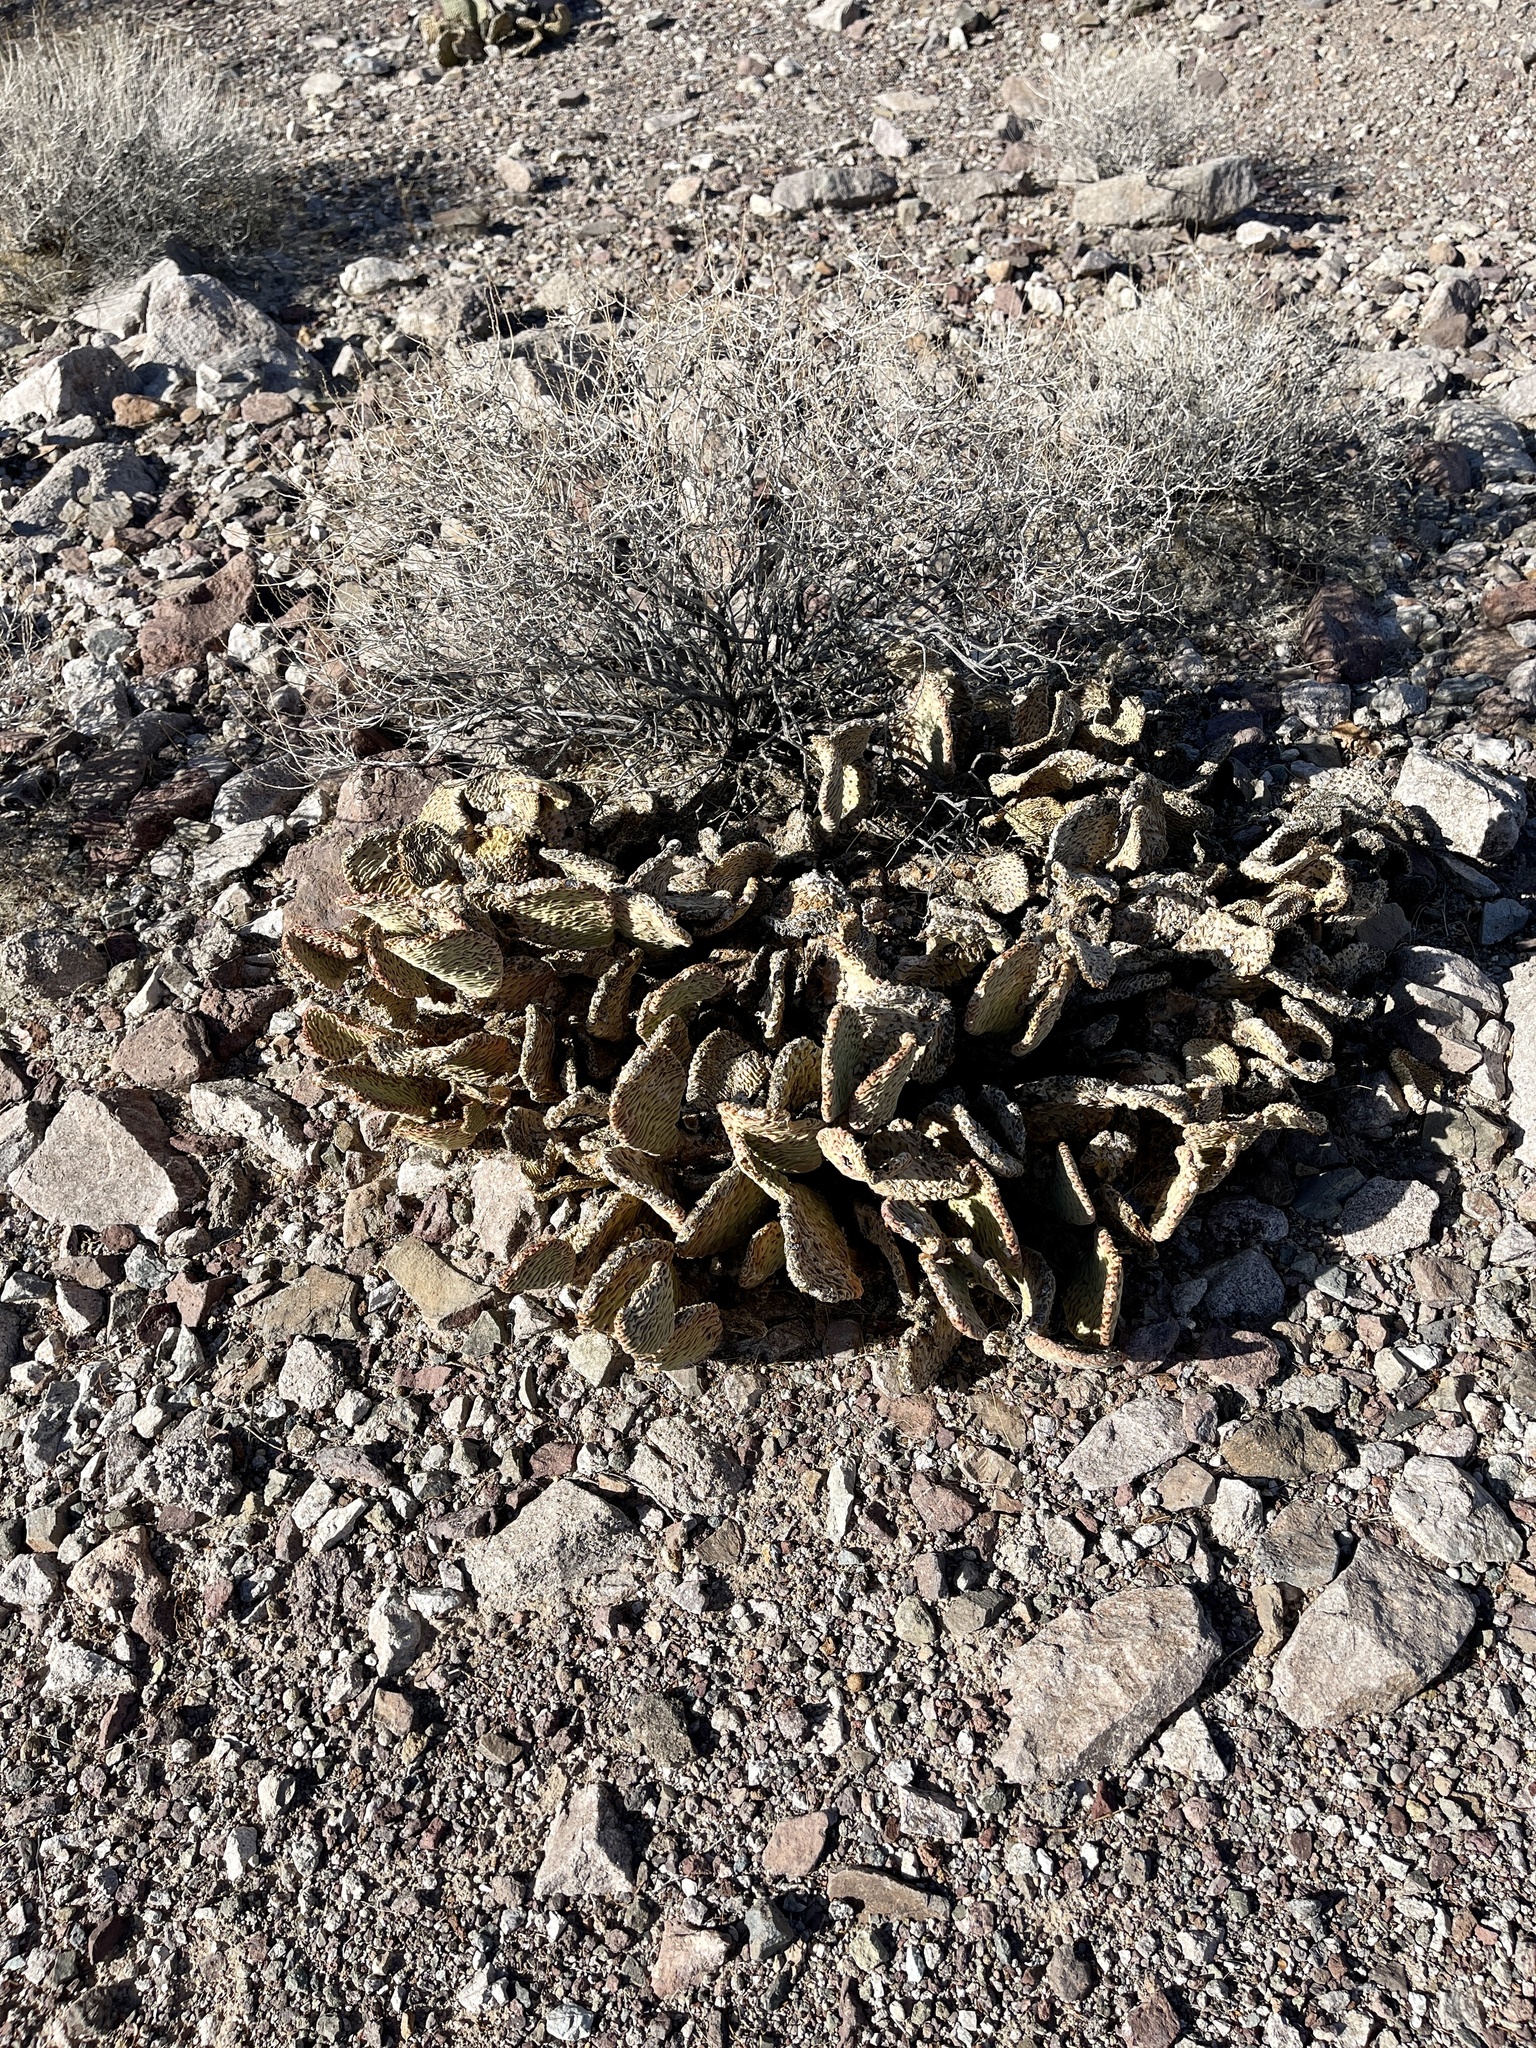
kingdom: Plantae
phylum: Tracheophyta
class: Magnoliopsida
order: Caryophyllales
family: Cactaceae
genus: Opuntia
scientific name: Opuntia basilaris
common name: Beavertail prickly-pear
